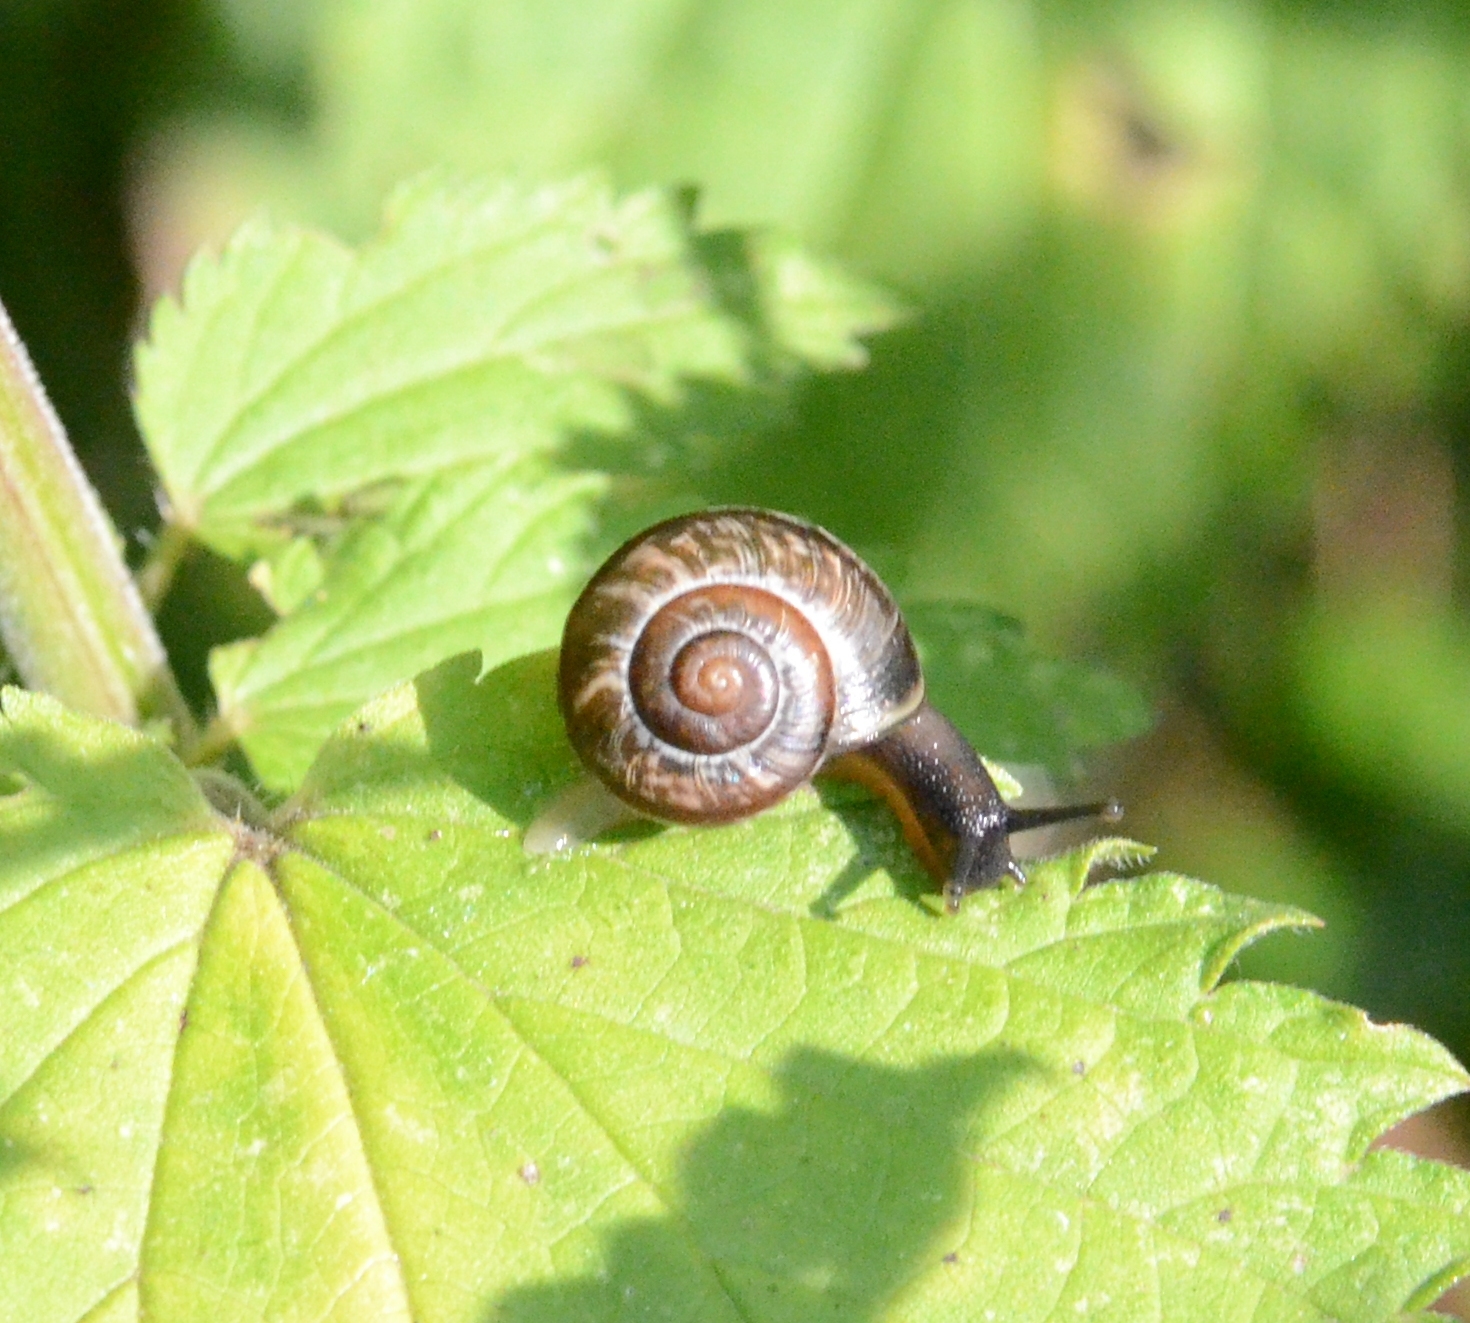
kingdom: Animalia
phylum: Mollusca
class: Gastropoda
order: Stylommatophora
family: Helicidae
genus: Arianta
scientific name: Arianta arbustorum
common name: Copse snail
